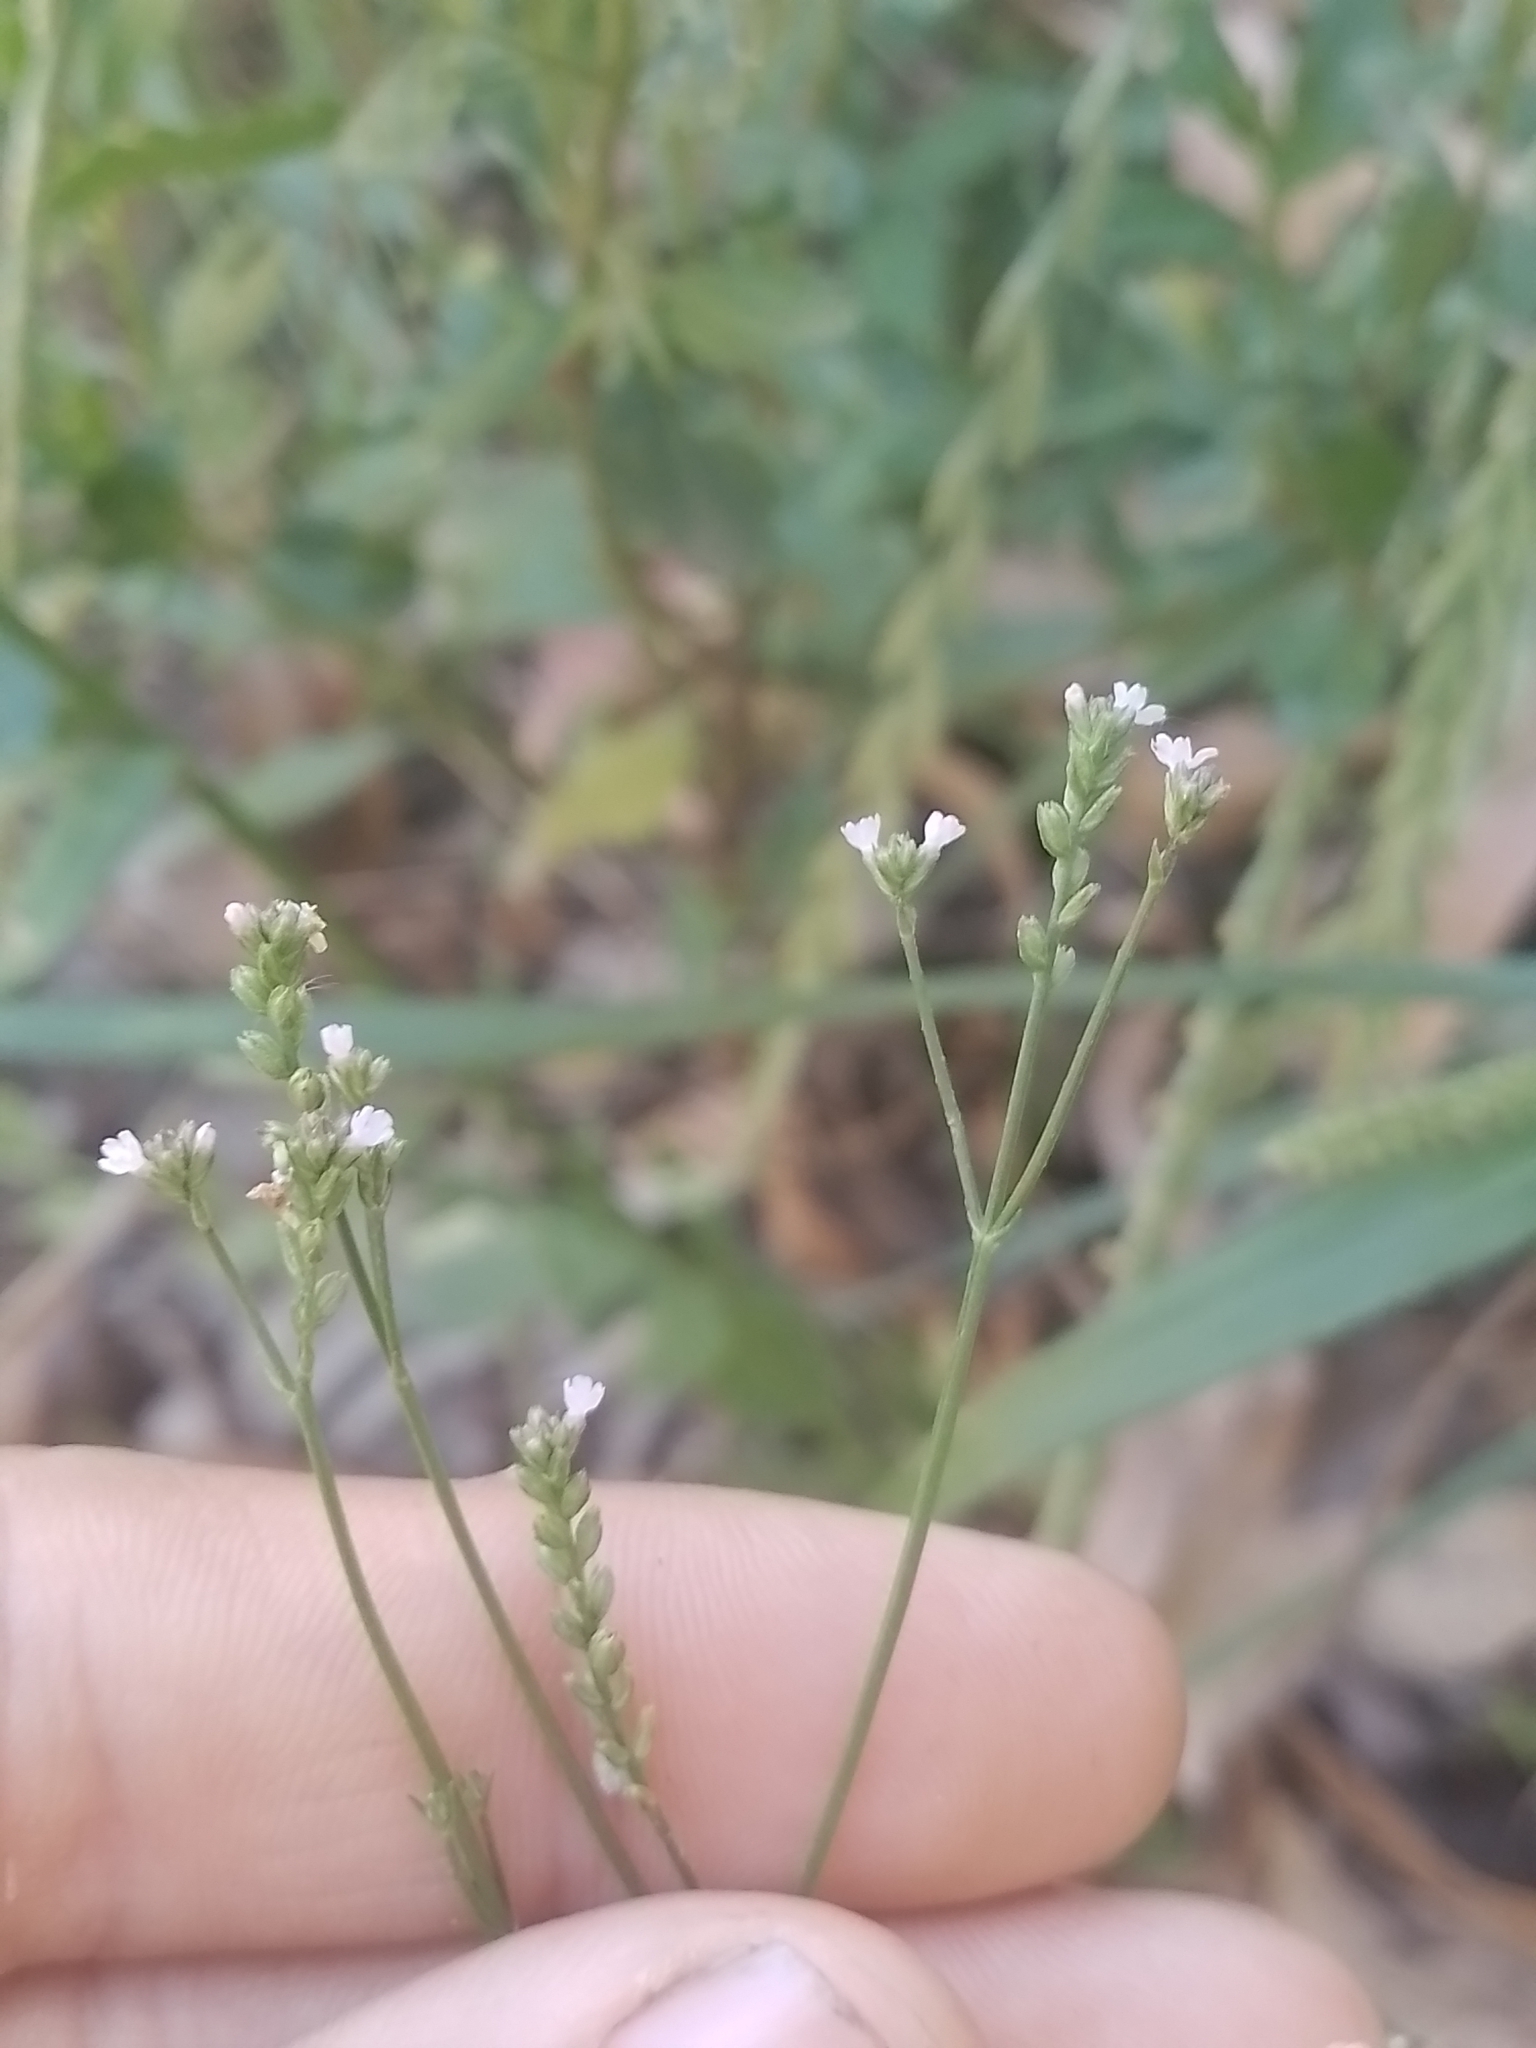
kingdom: Plantae
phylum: Tracheophyta
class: Magnoliopsida
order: Lamiales
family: Verbenaceae
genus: Verbena
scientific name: Verbena montevidensis
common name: Uruguayan vervain
